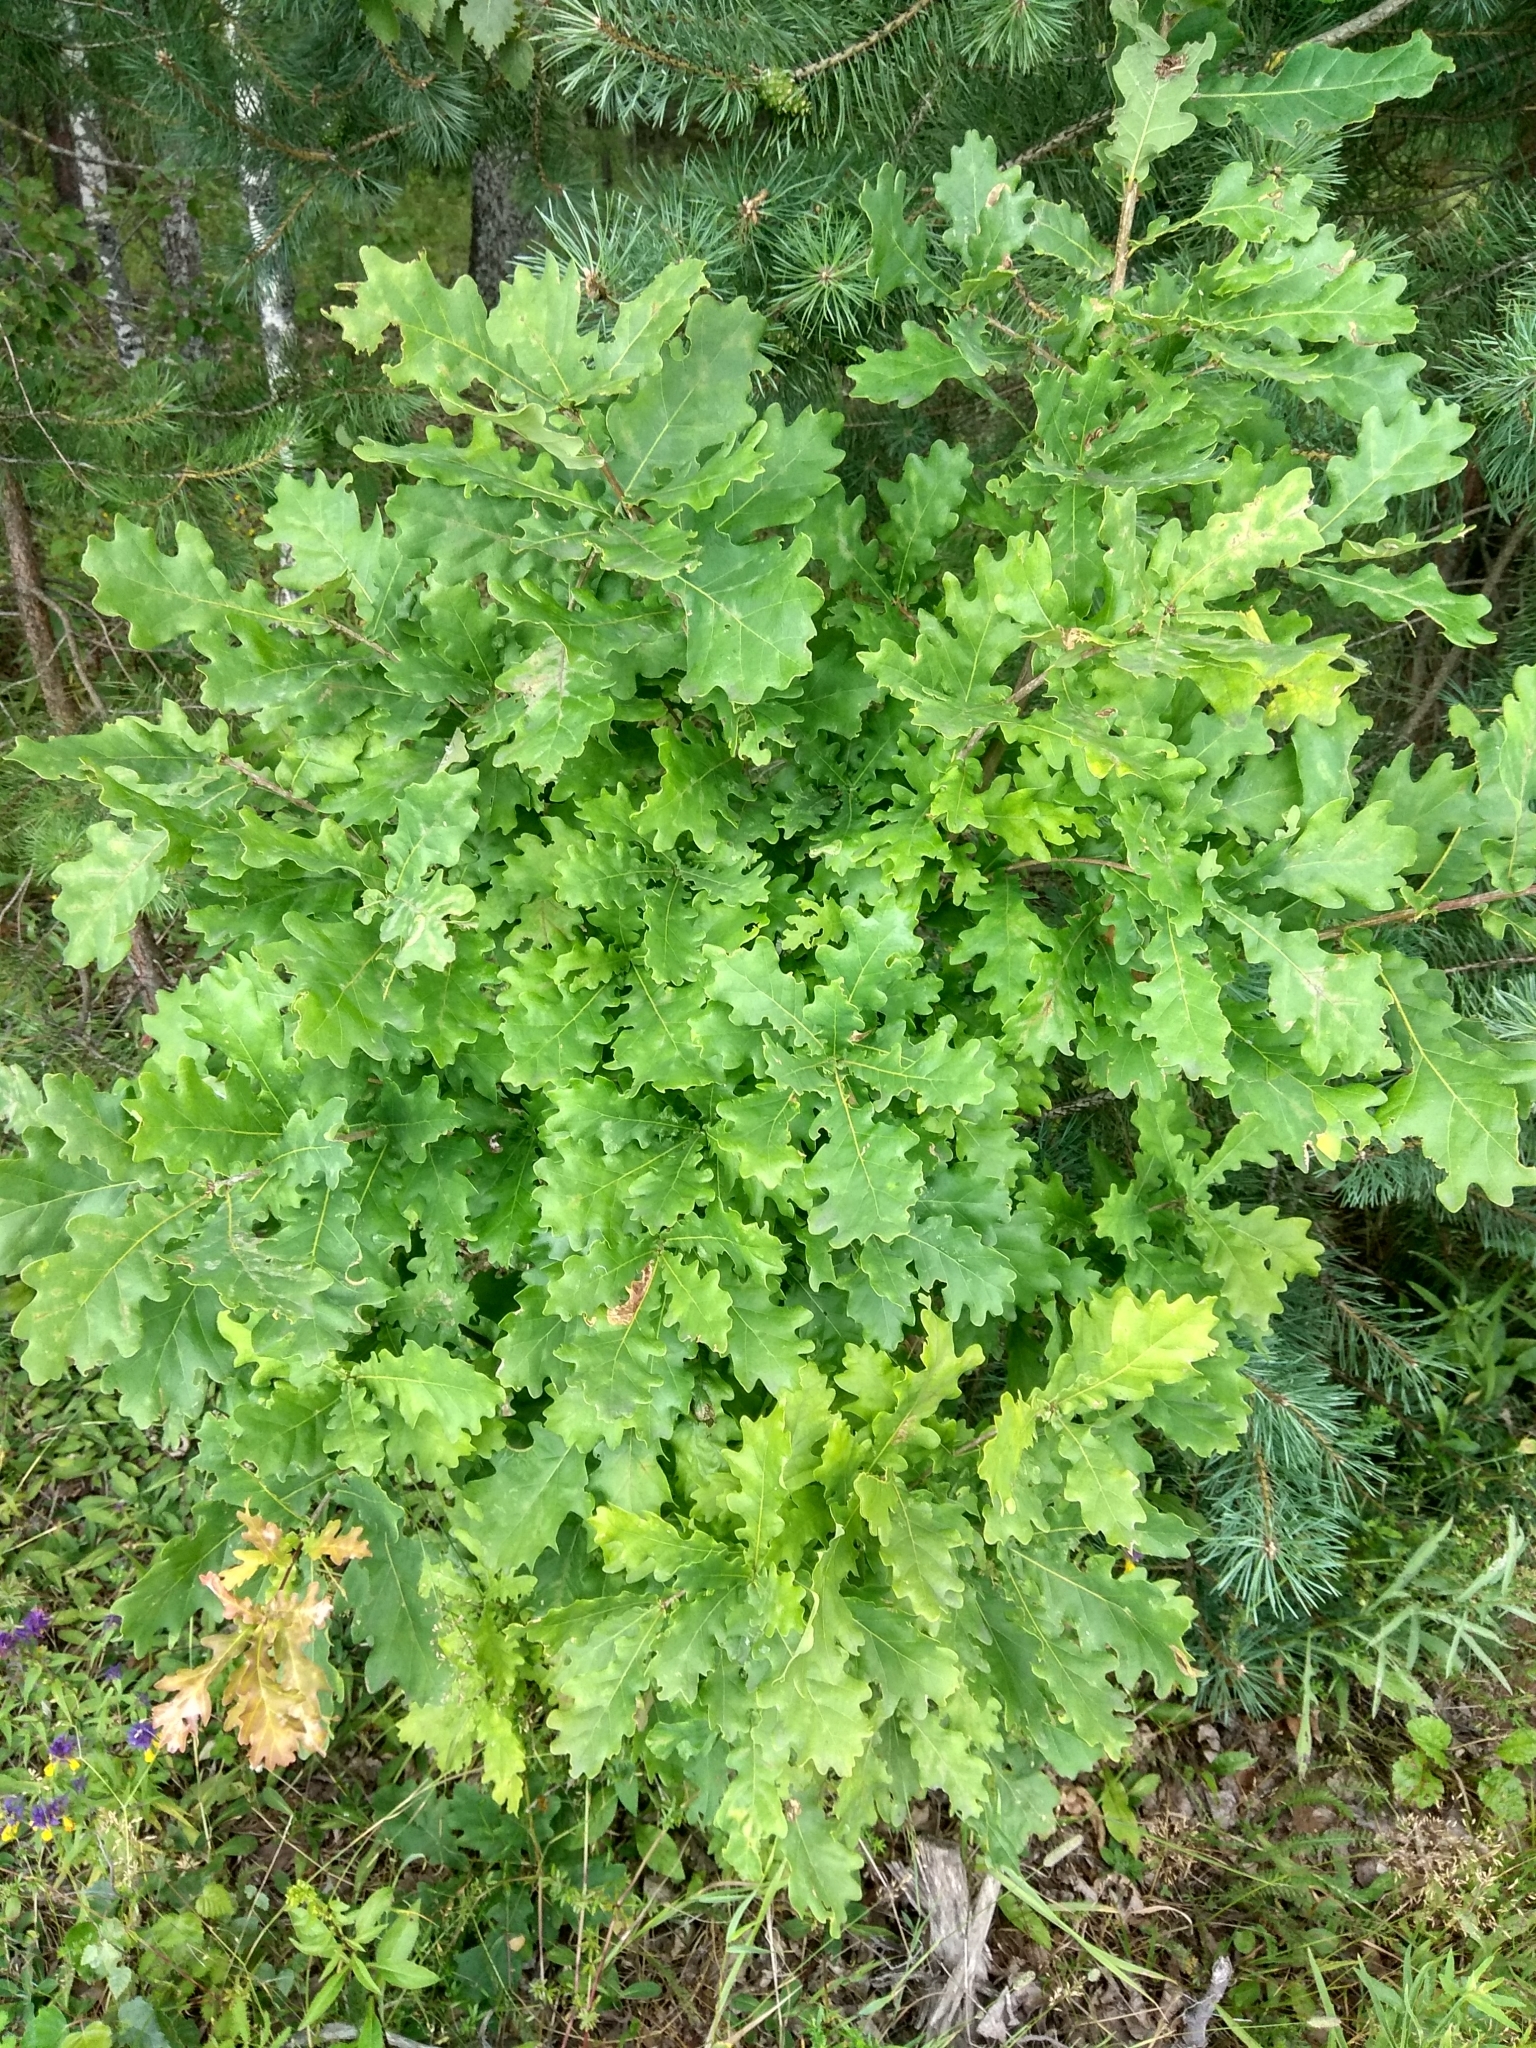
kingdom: Plantae
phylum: Tracheophyta
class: Magnoliopsida
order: Fagales
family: Fagaceae
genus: Quercus
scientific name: Quercus robur
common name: Pedunculate oak
